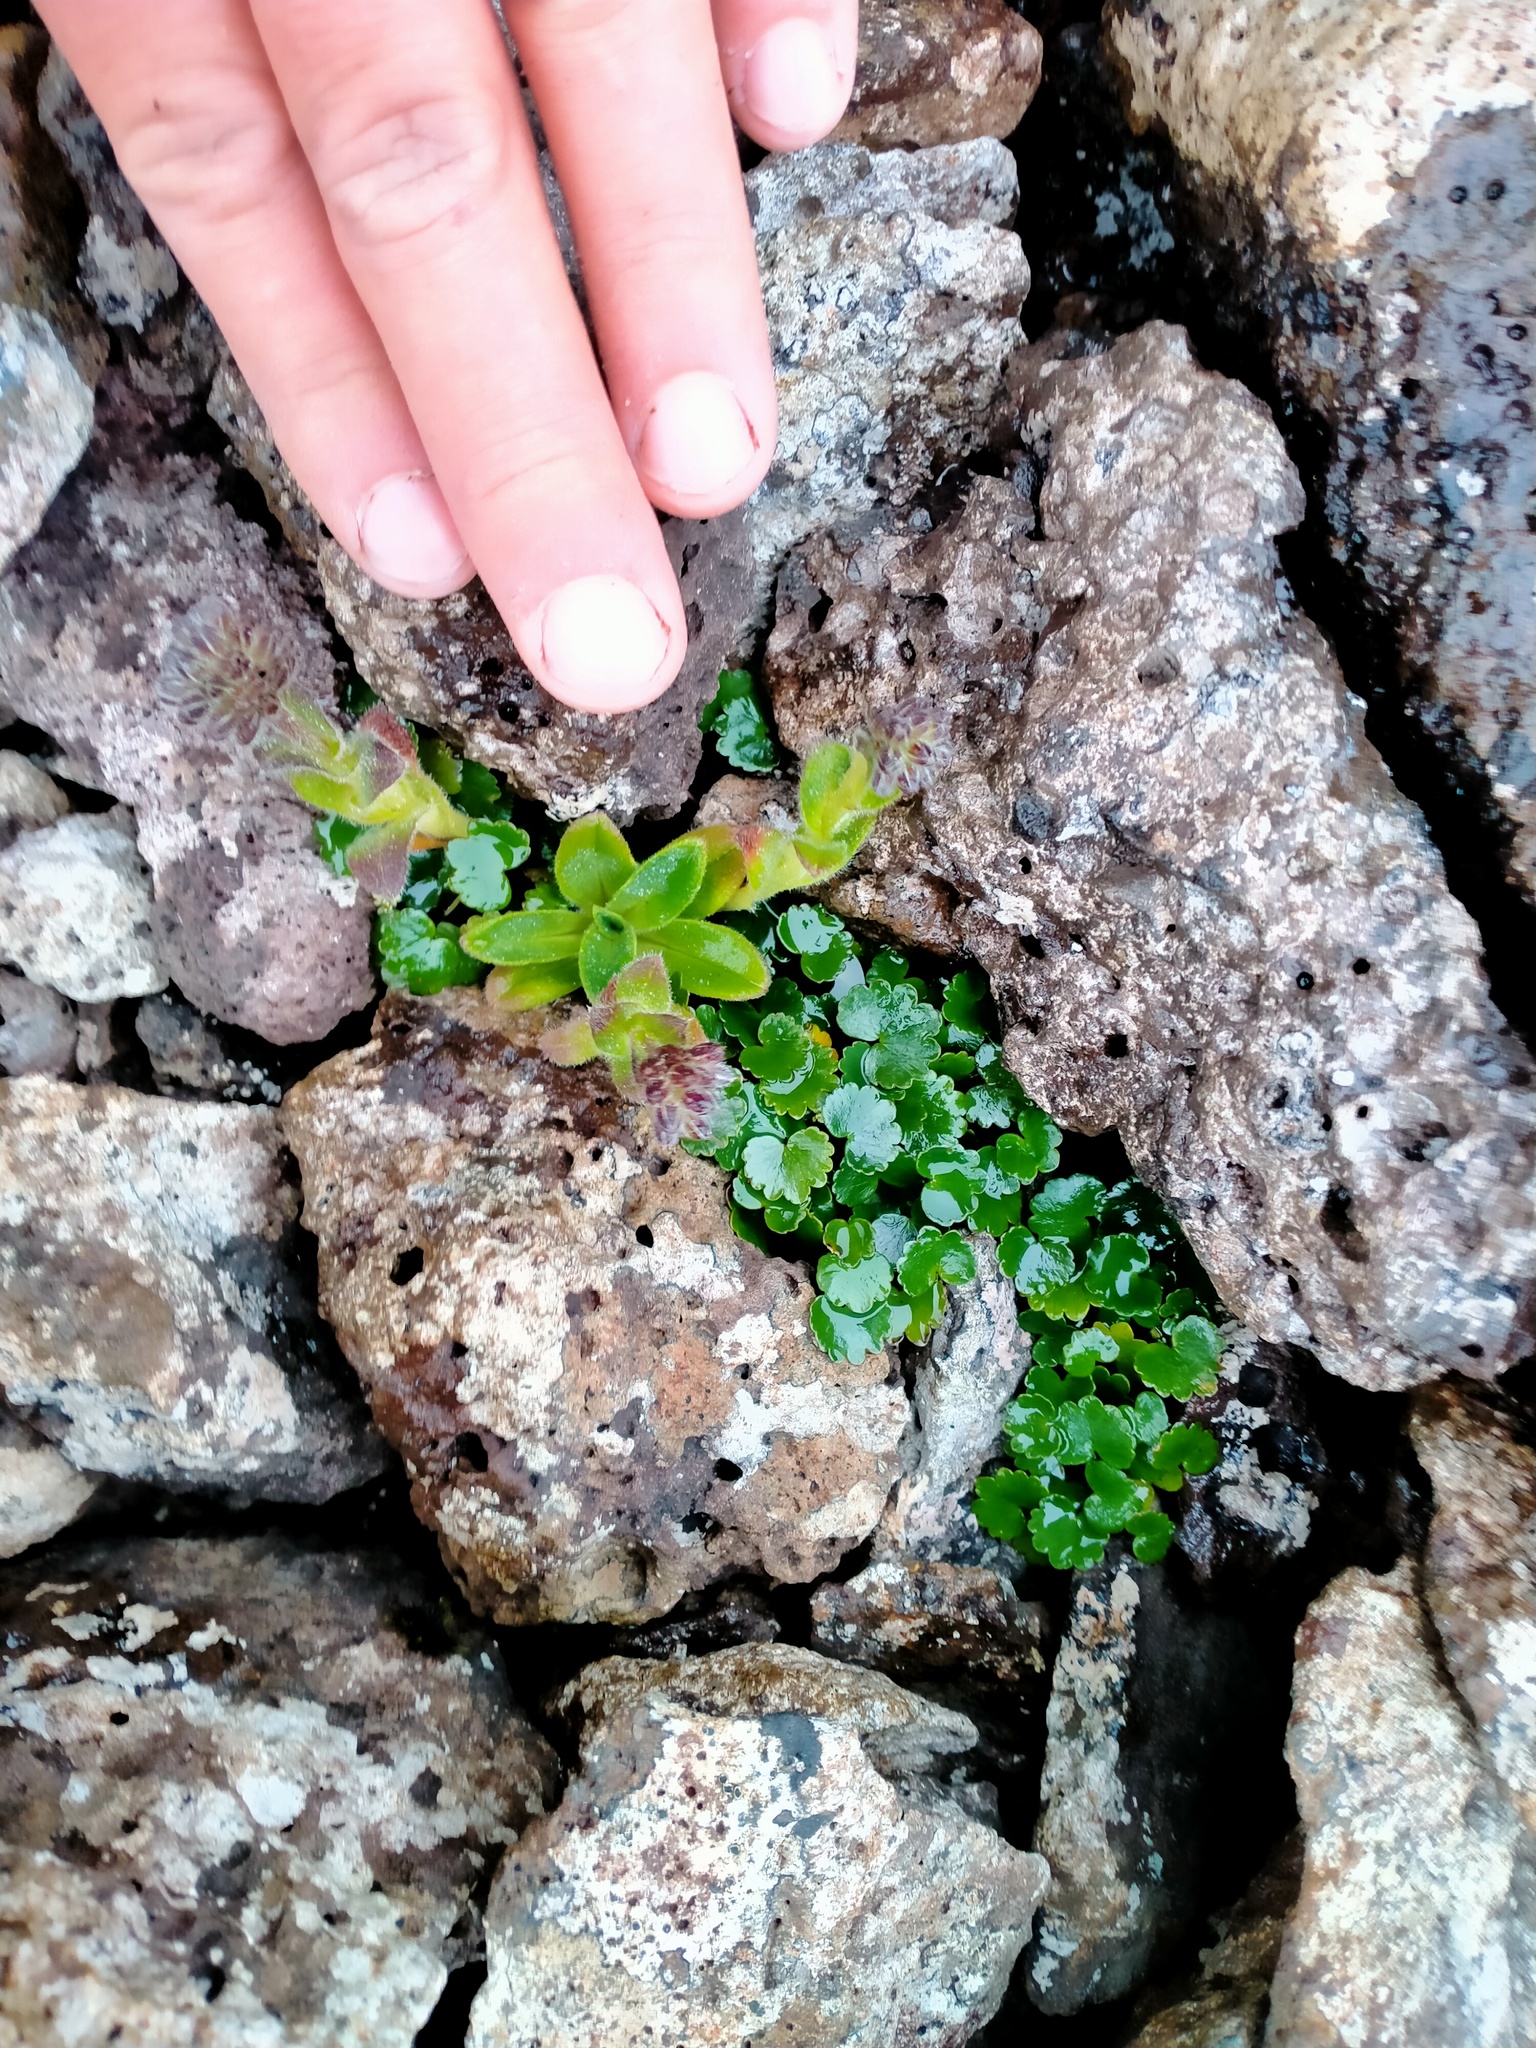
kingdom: Plantae
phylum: Tracheophyta
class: Magnoliopsida
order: Apiales
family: Apiaceae
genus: Azorella
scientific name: Azorella schizeilema
